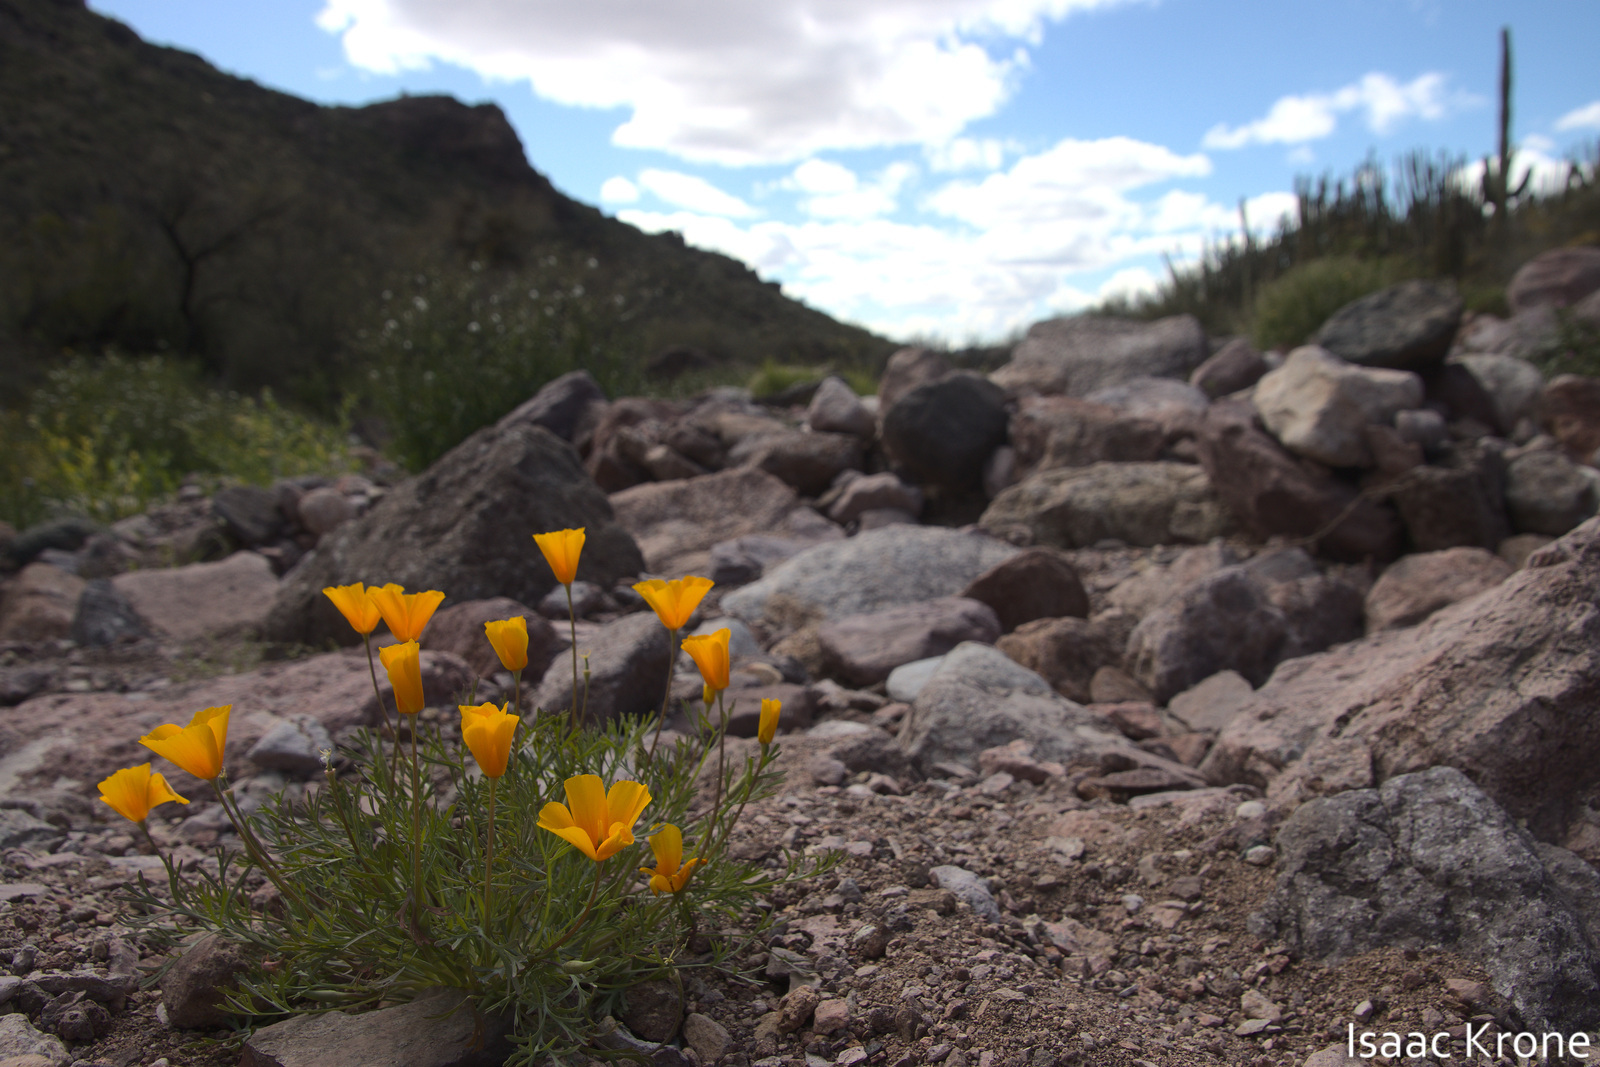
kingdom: Plantae
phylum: Tracheophyta
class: Magnoliopsida
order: Ranunculales
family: Papaveraceae
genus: Eschscholzia
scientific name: Eschscholzia californica
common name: California poppy
